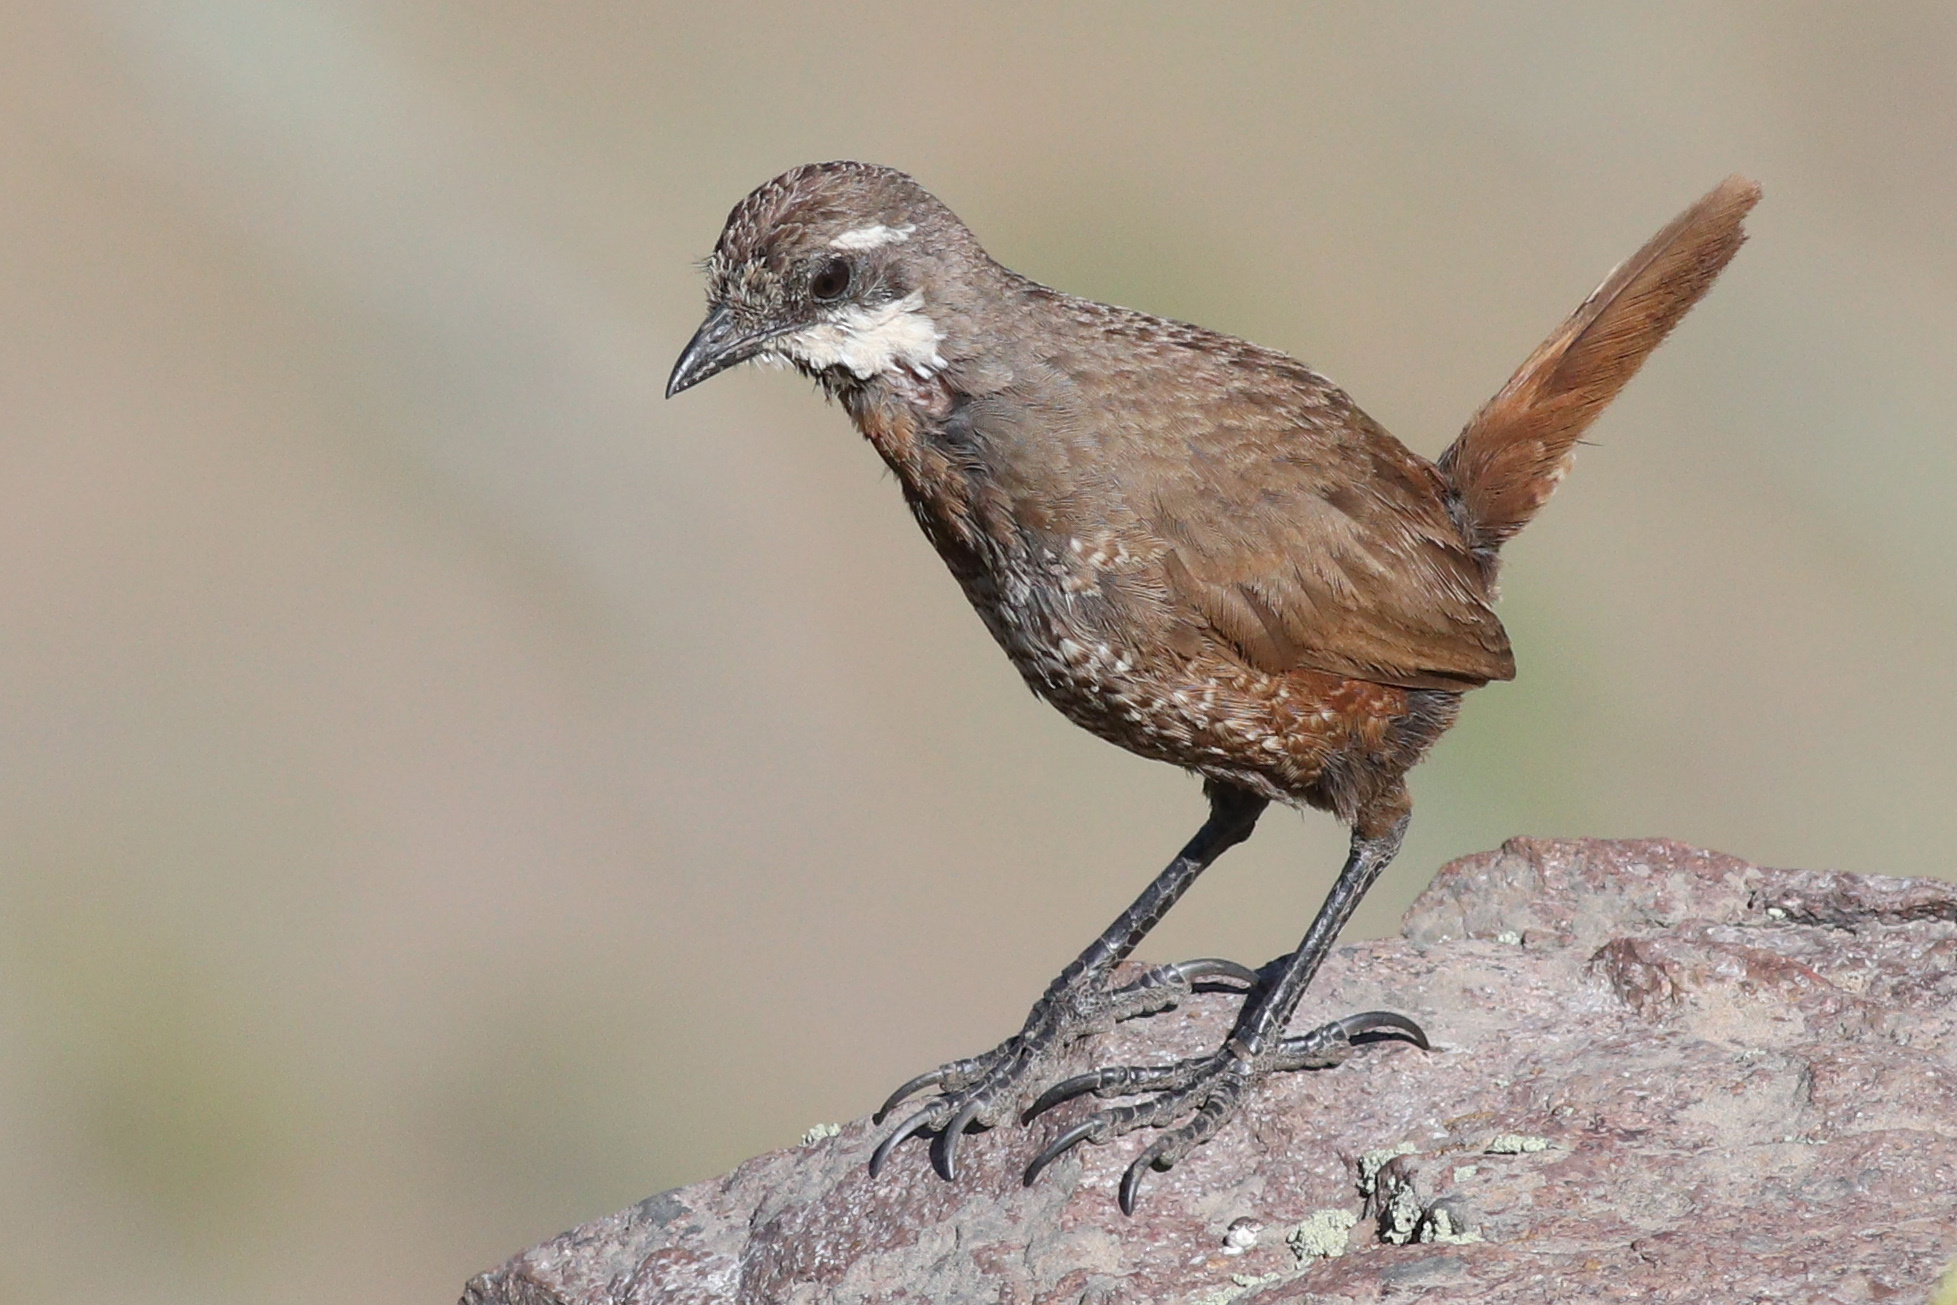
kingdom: Animalia
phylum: Chordata
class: Aves
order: Passeriformes
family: Rhinocryptidae
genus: Pteroptochos
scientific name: Pteroptochos megapodius
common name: Moustached turca
